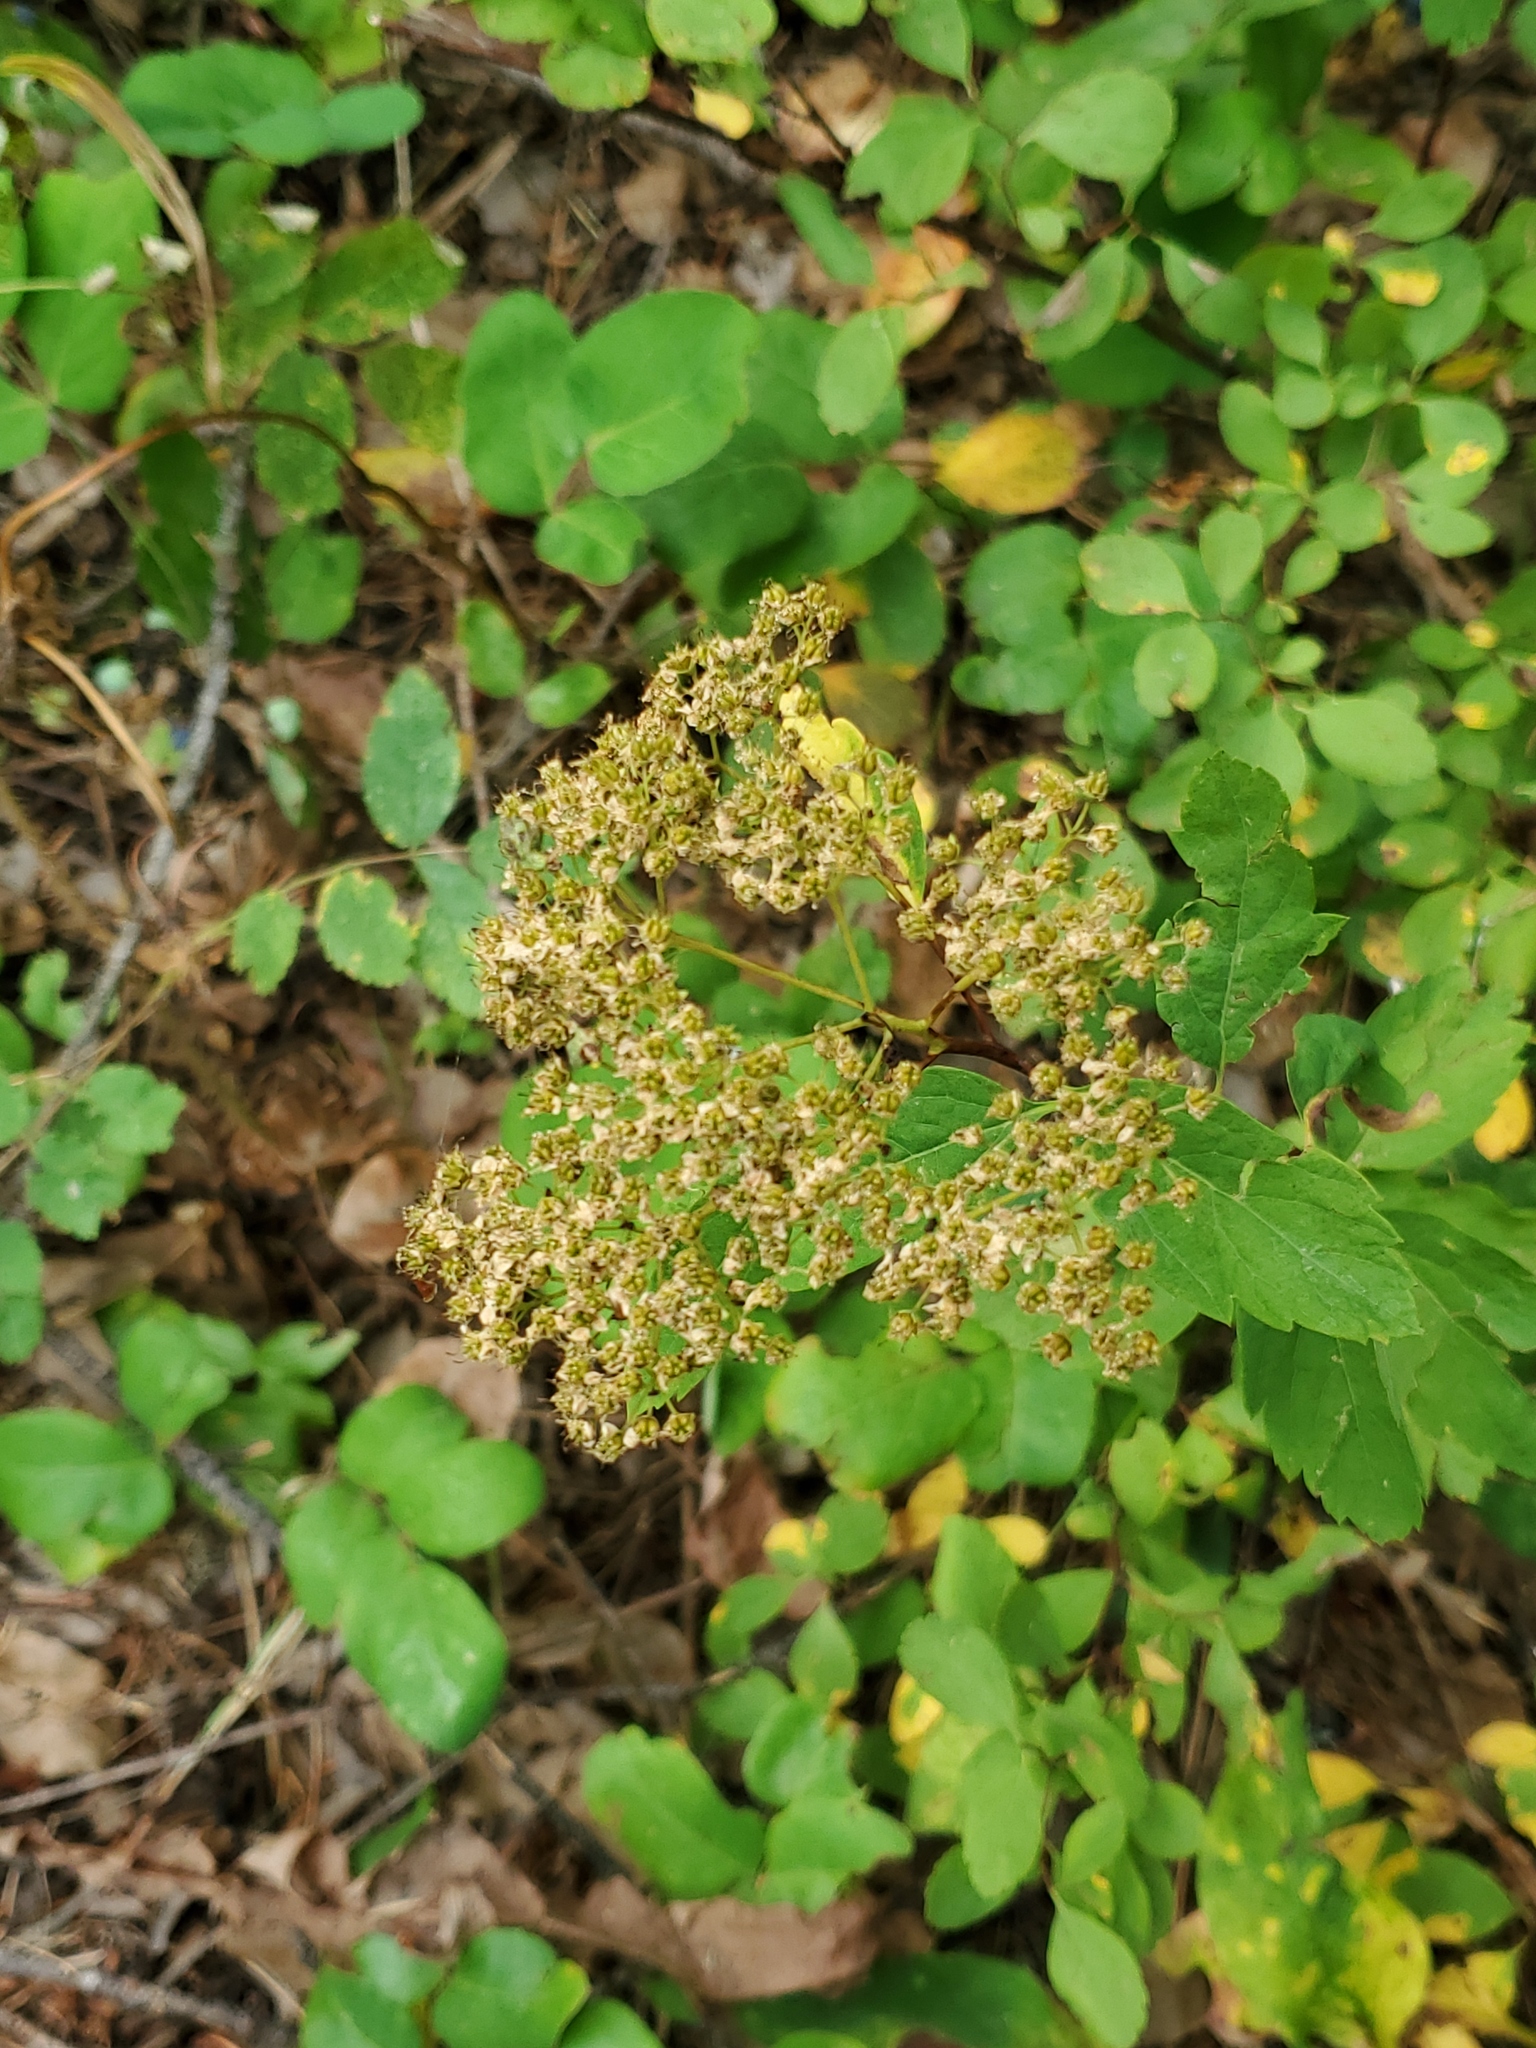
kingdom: Plantae
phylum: Tracheophyta
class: Magnoliopsida
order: Rosales
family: Rosaceae
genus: Spiraea
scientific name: Spiraea lucida
